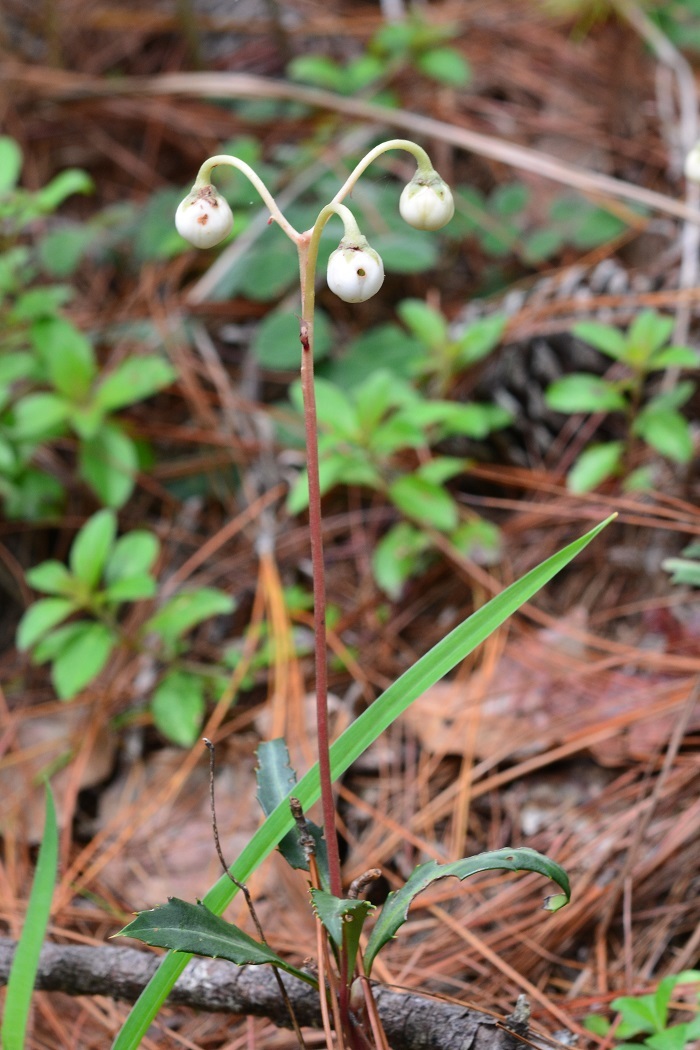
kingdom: Plantae
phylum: Tracheophyta
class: Magnoliopsida
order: Ericales
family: Ericaceae
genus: Chimaphila
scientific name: Chimaphila maculata
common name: Spotted pipsissewa
